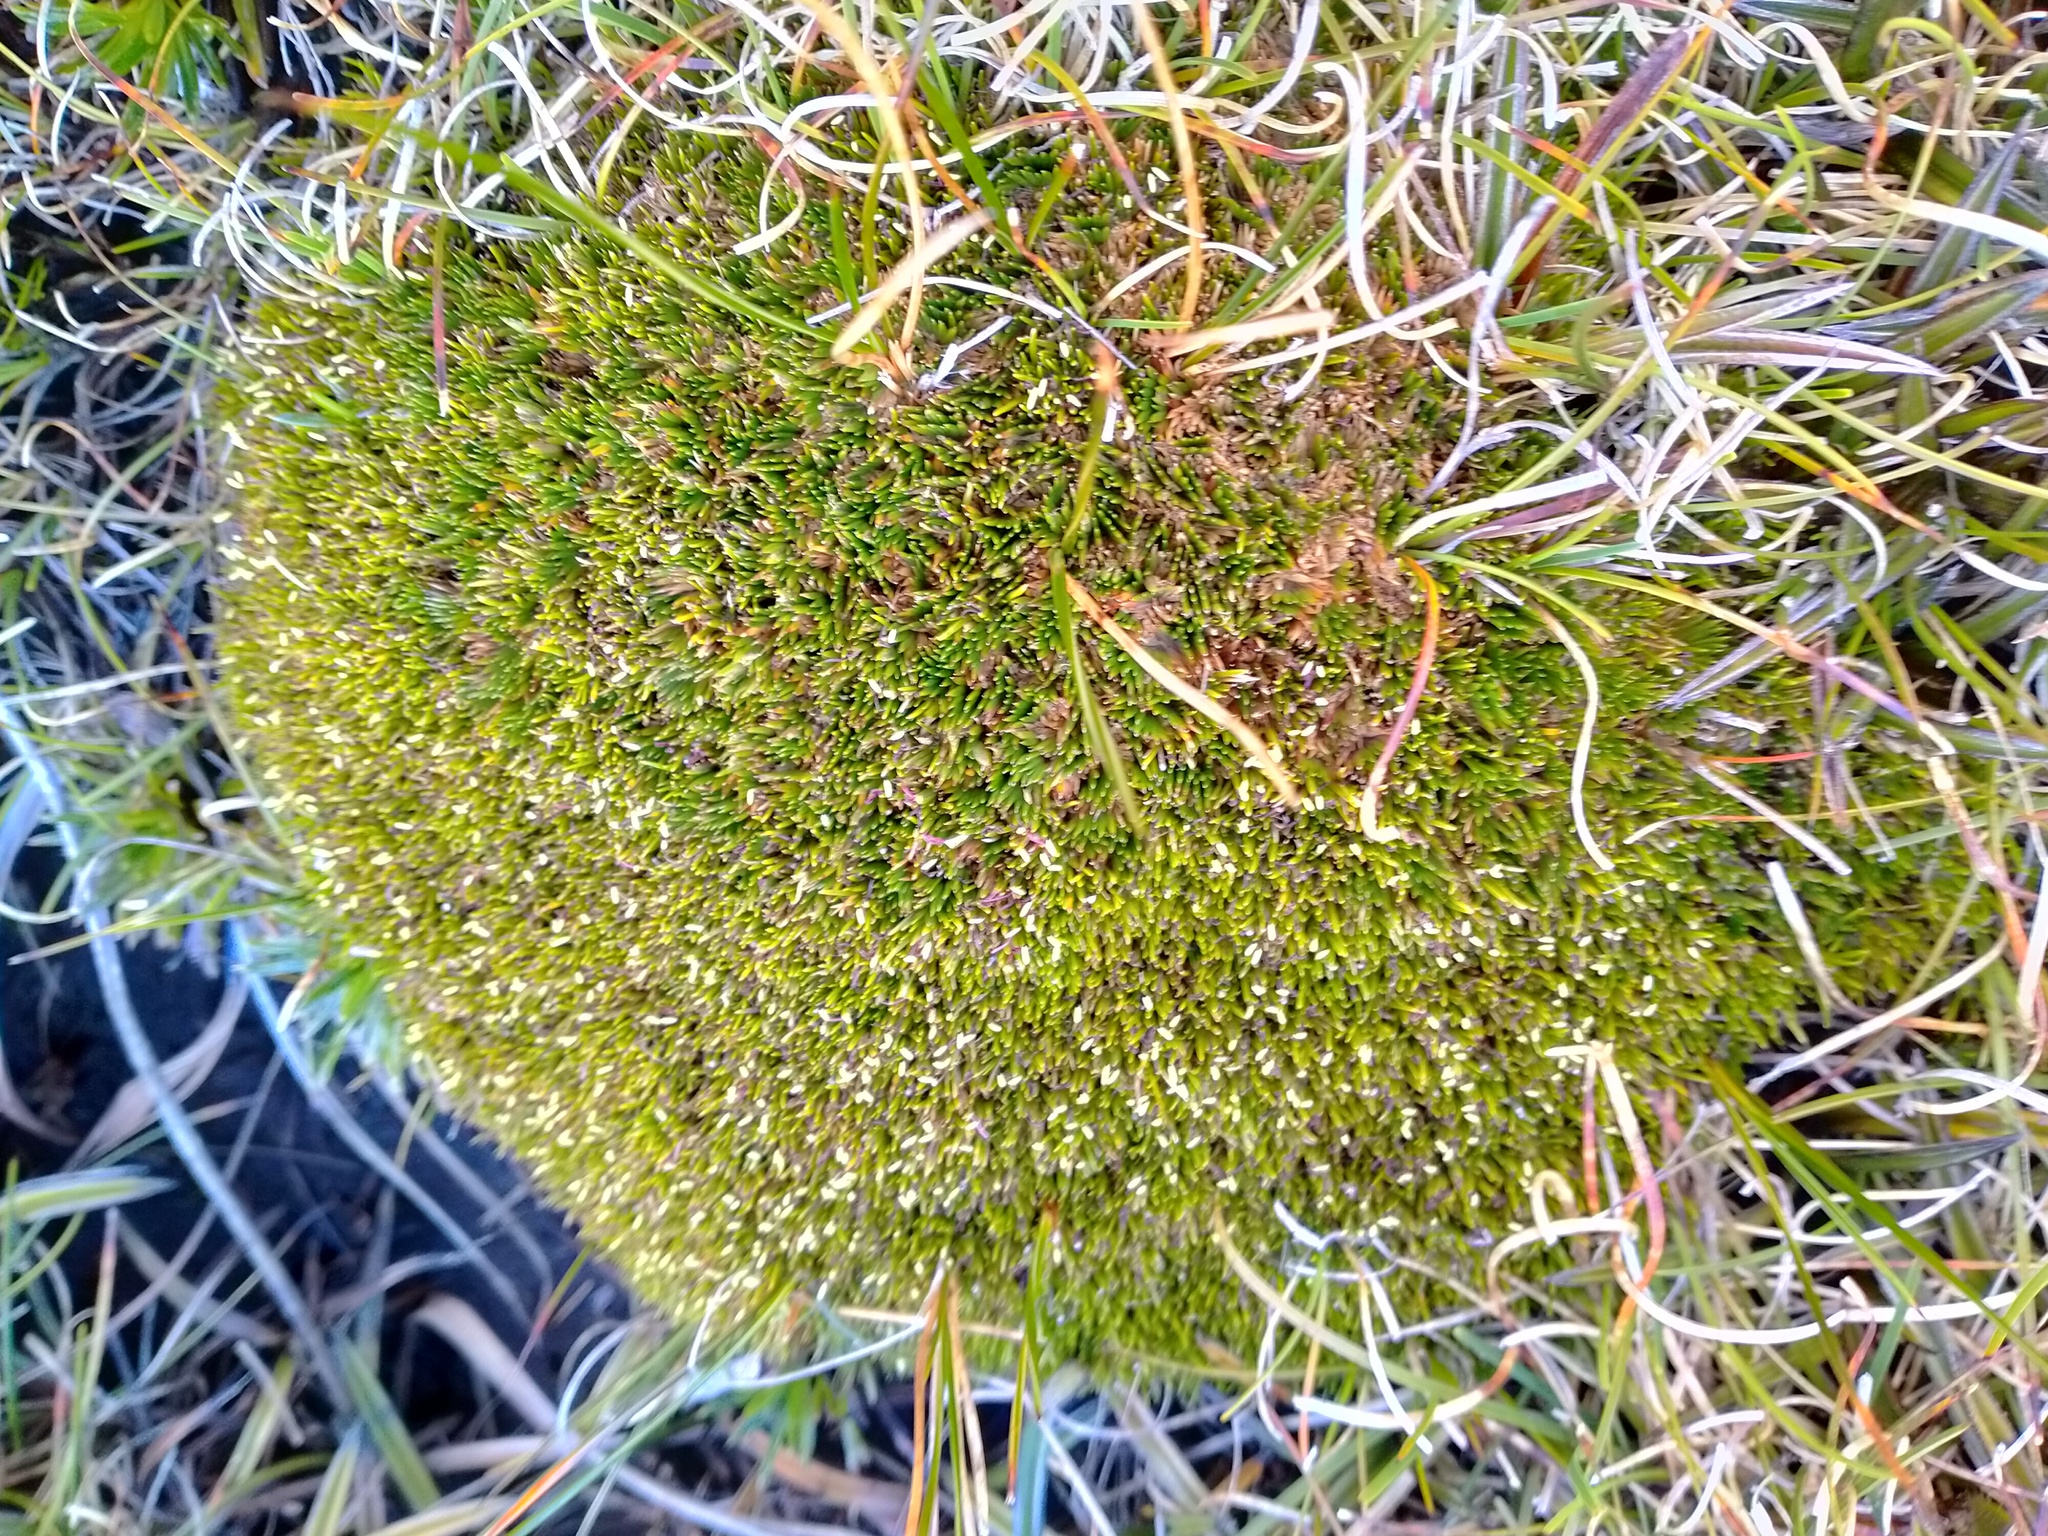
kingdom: Plantae
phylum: Tracheophyta
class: Liliopsida
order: Poales
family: Restionaceae
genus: Centrolepis
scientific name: Centrolepis pallida
